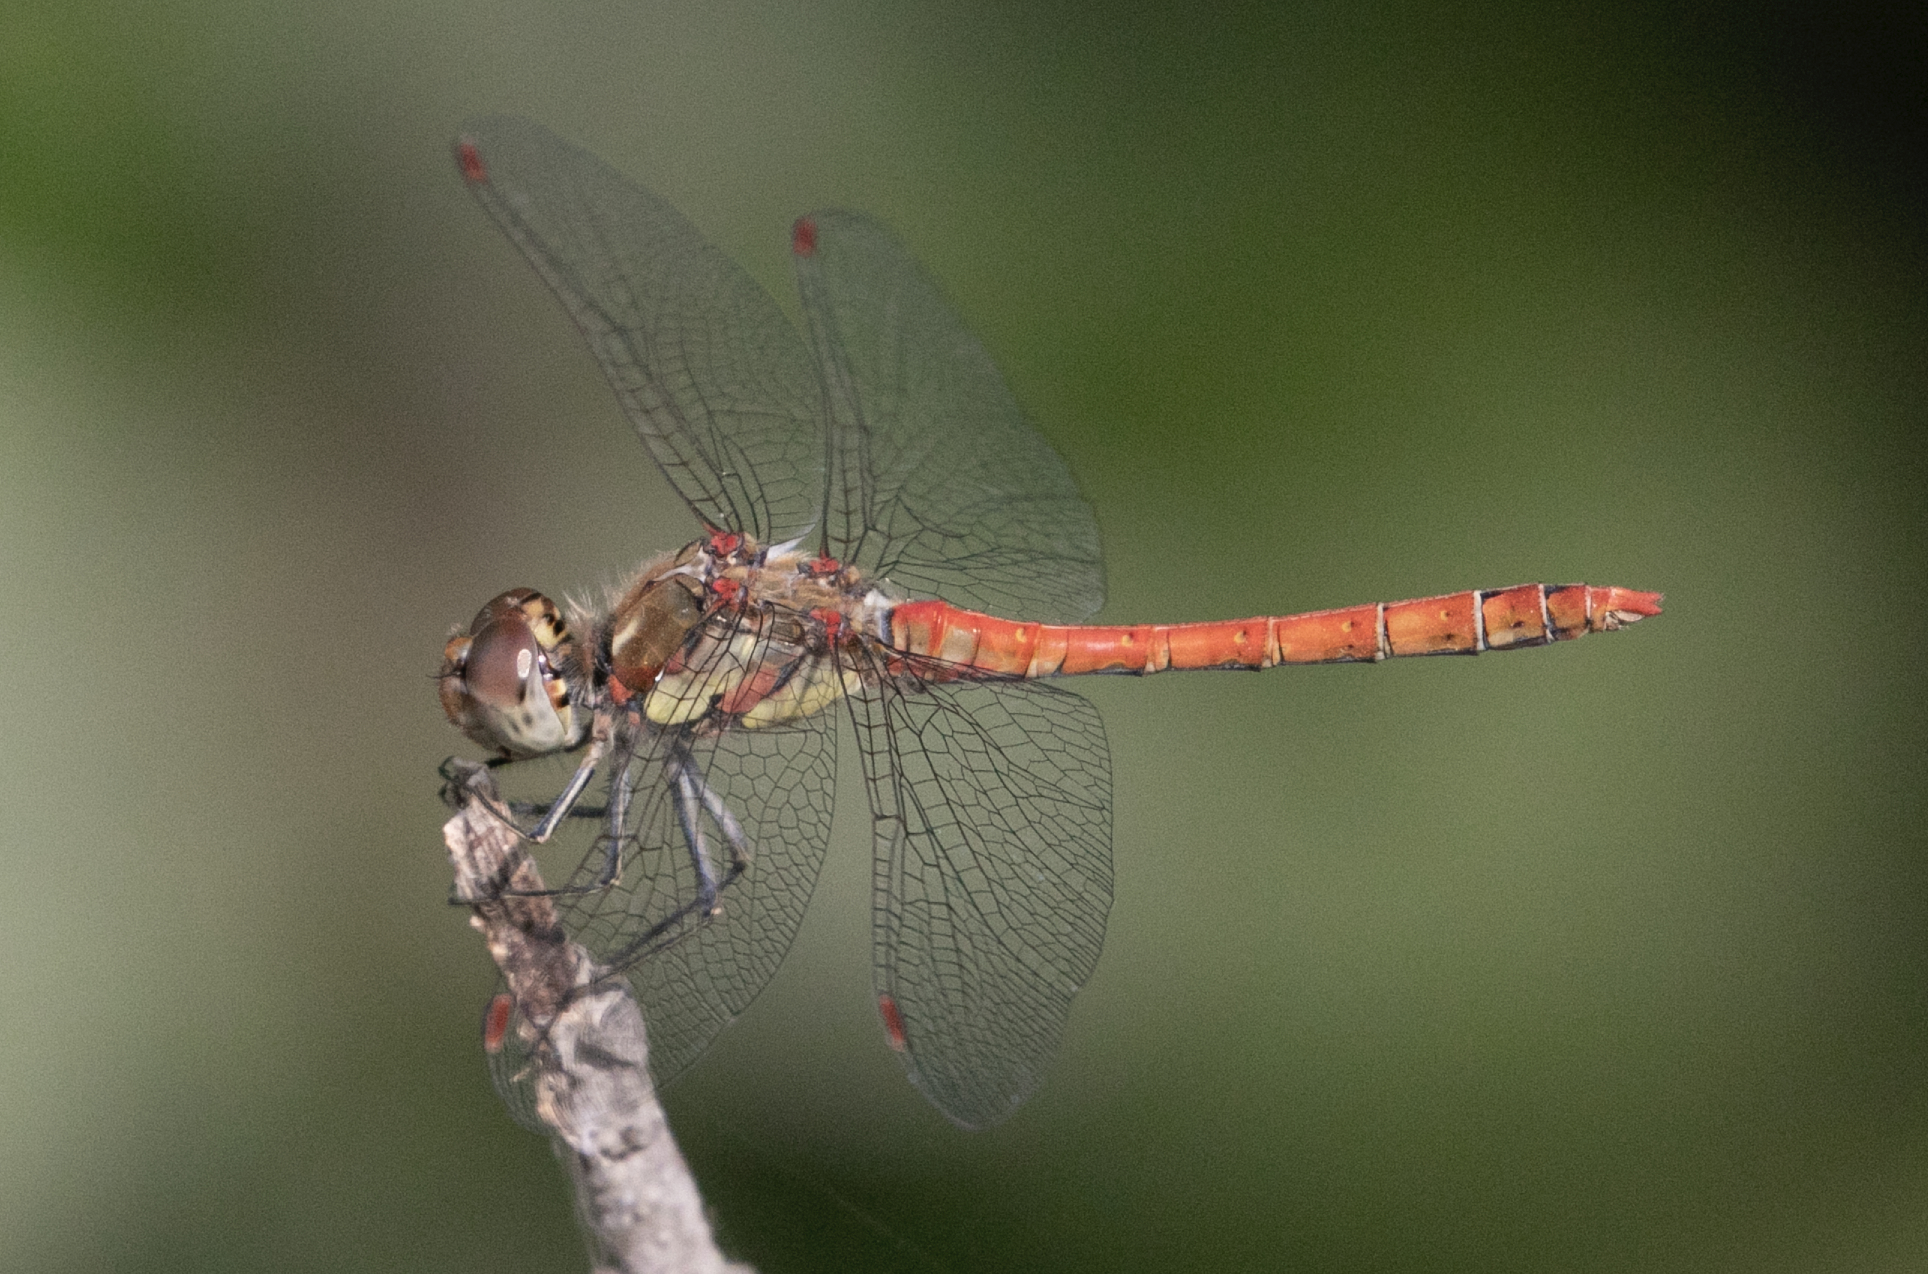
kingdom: Animalia
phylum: Arthropoda
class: Insecta
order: Odonata
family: Libellulidae
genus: Sympetrum
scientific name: Sympetrum striolatum
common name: Common darter
